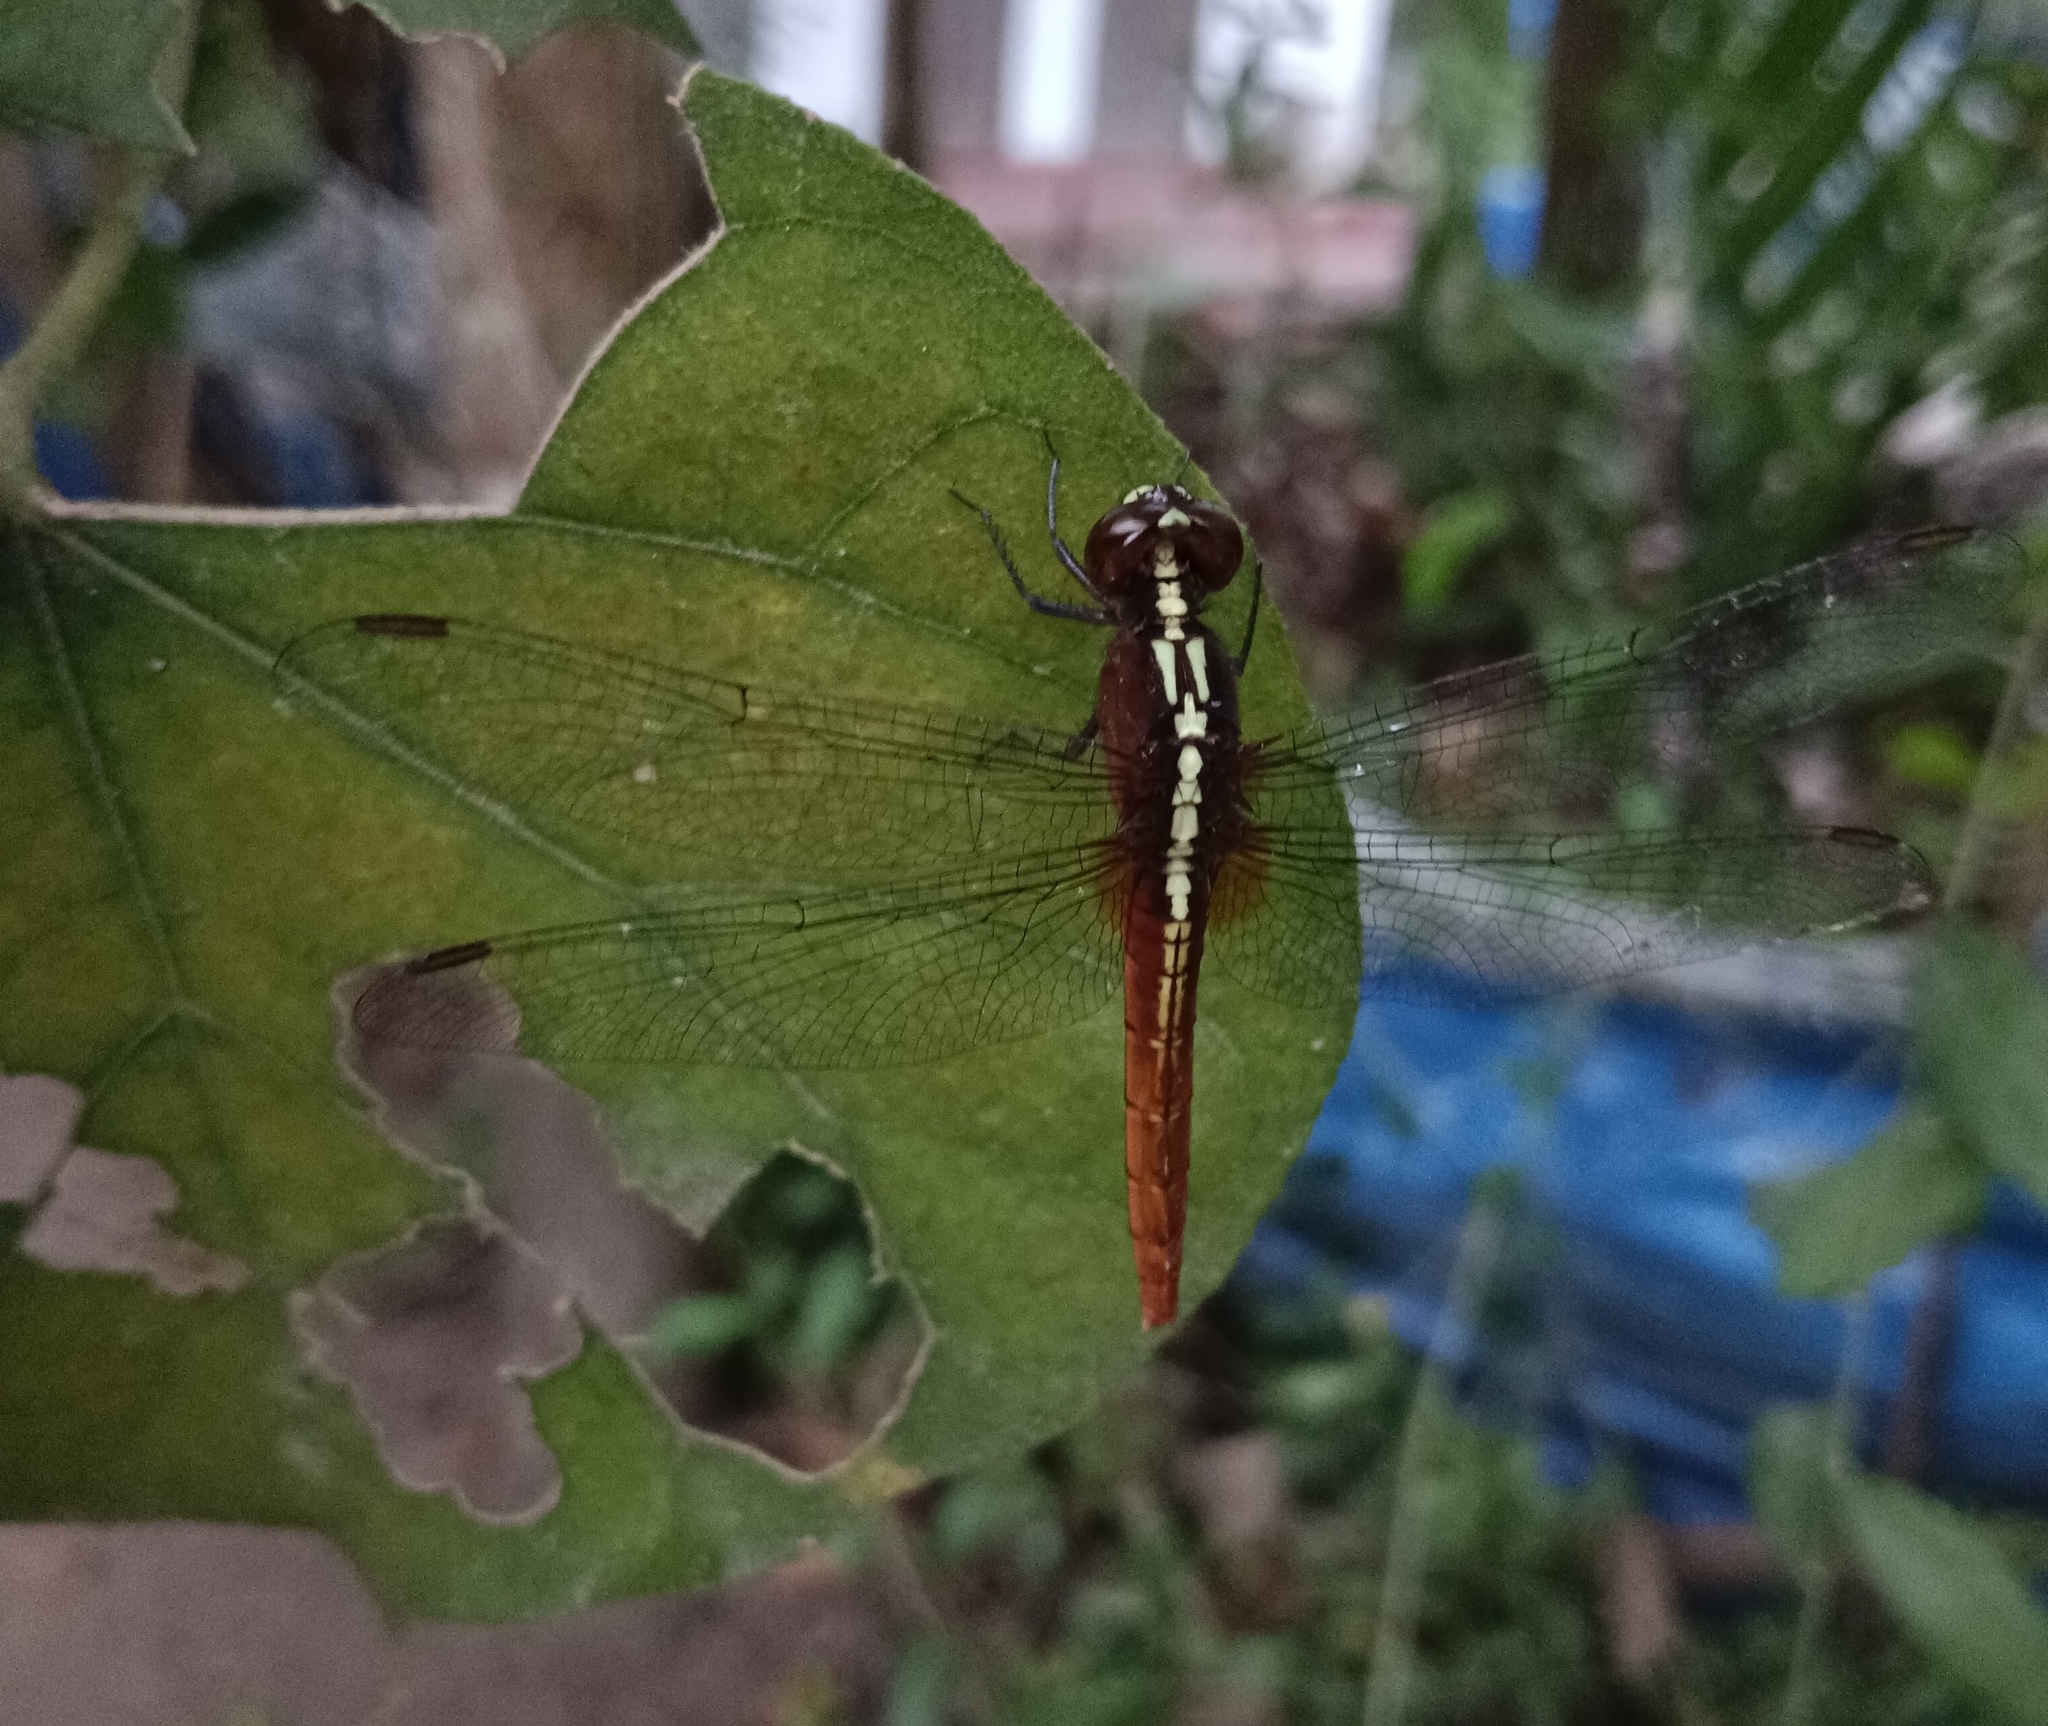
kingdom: Animalia
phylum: Arthropoda
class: Insecta
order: Odonata
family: Libellulidae
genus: Rhodothemis
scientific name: Rhodothemis rufa
